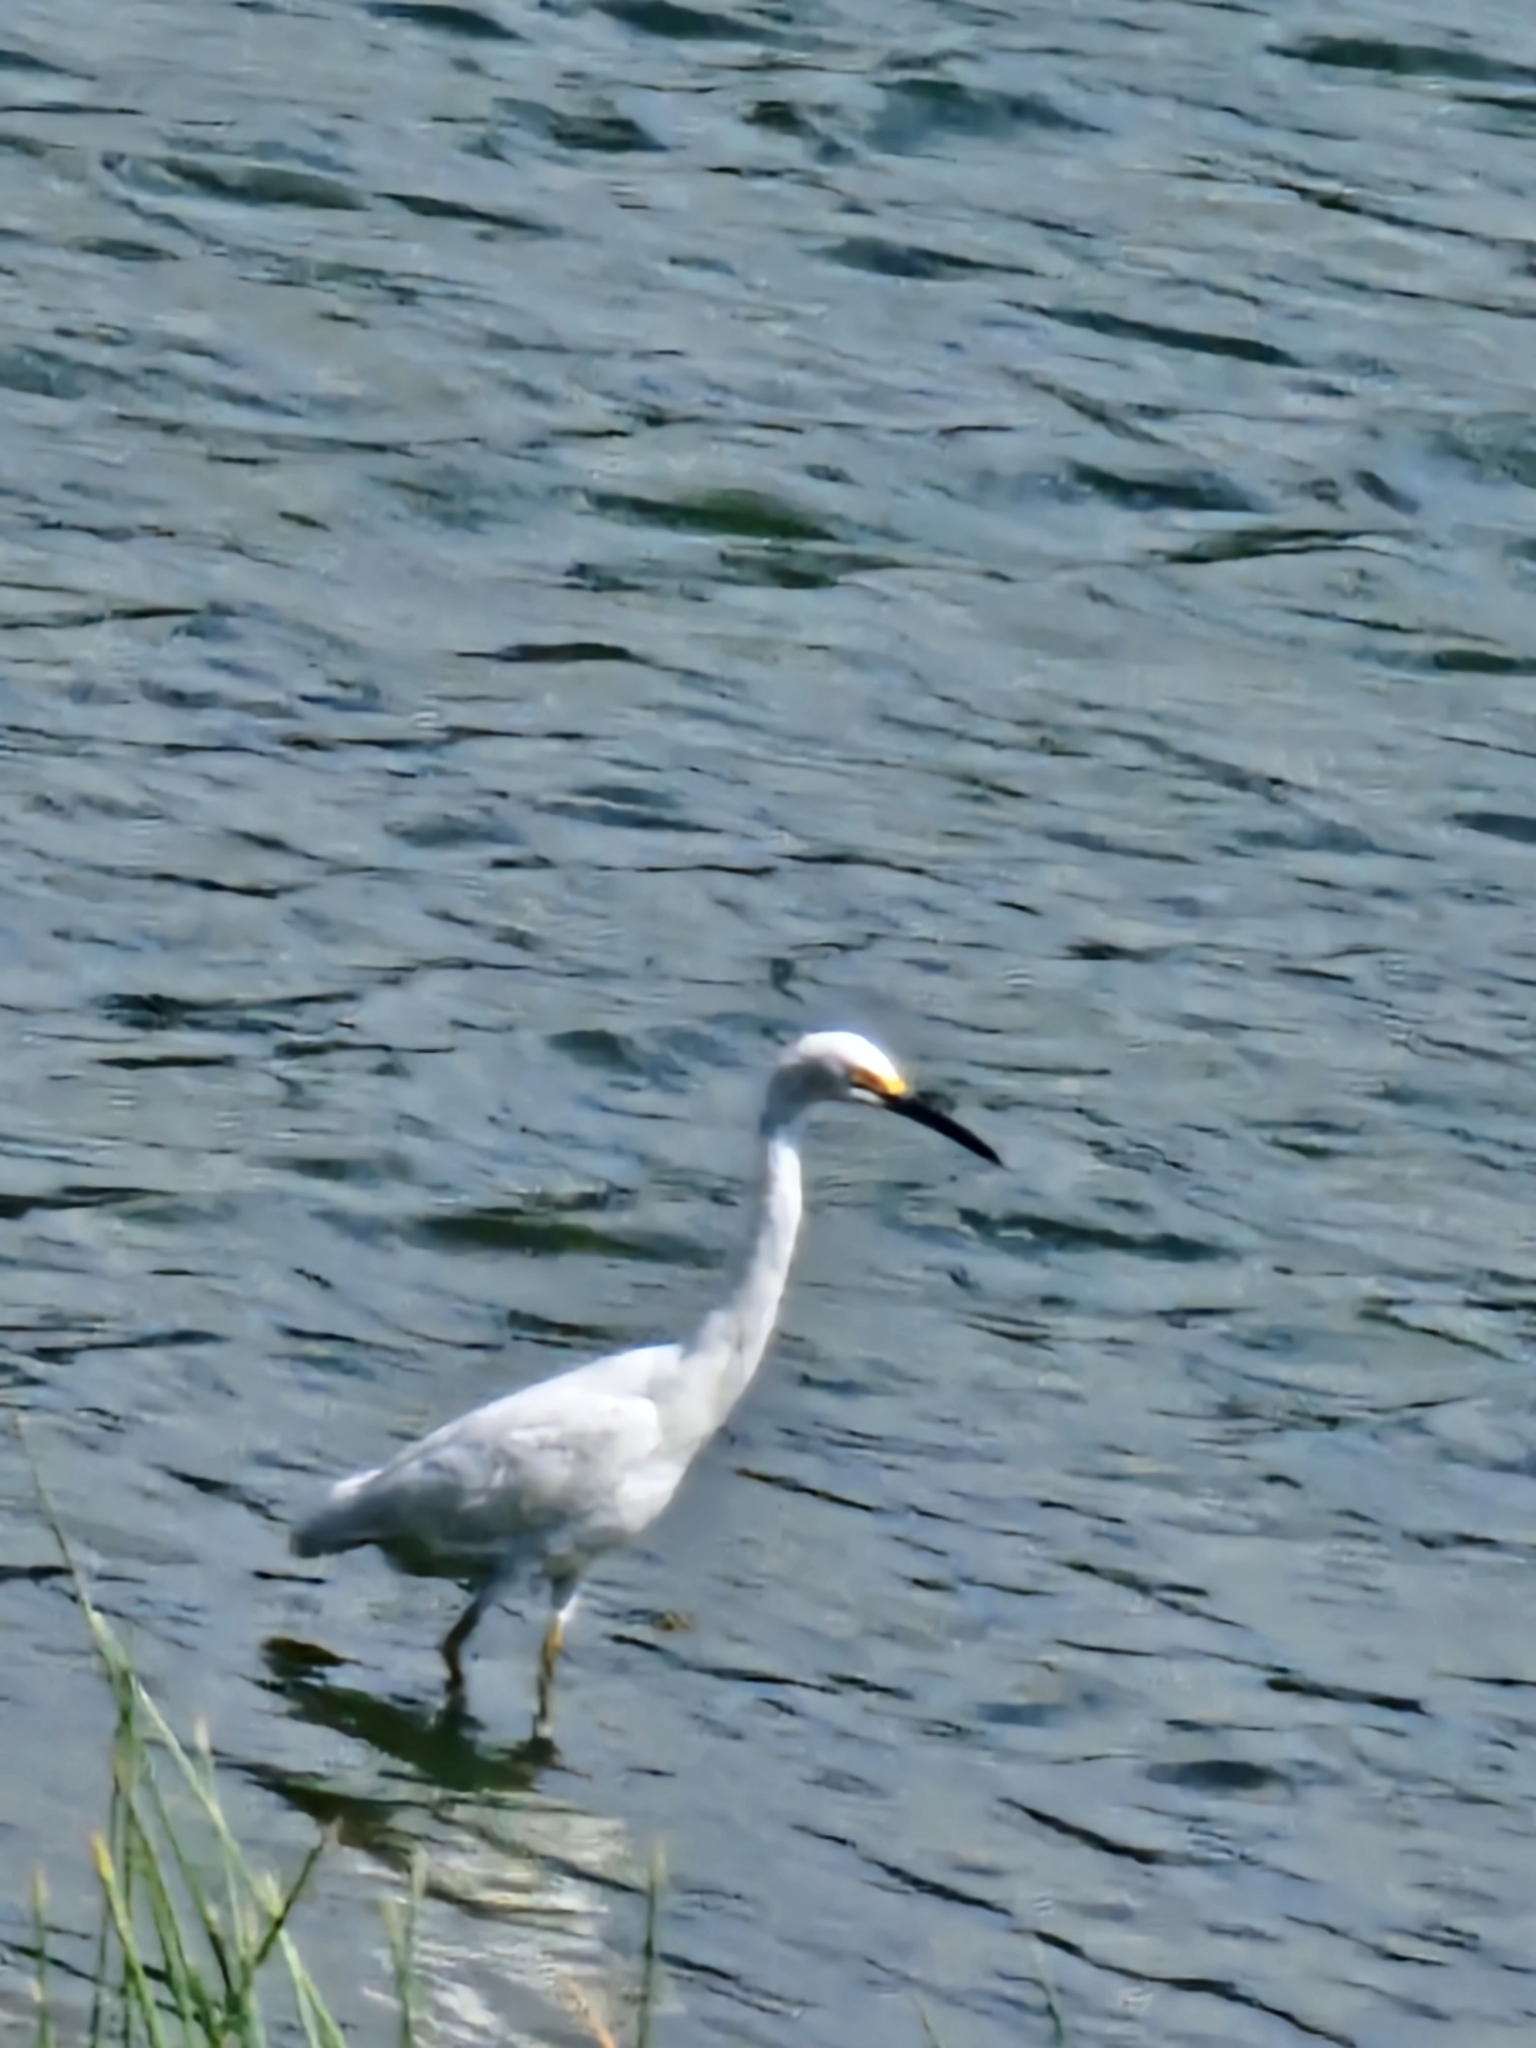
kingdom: Animalia
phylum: Chordata
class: Aves
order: Pelecaniformes
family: Ardeidae
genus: Egretta
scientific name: Egretta thula
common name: Snowy egret
